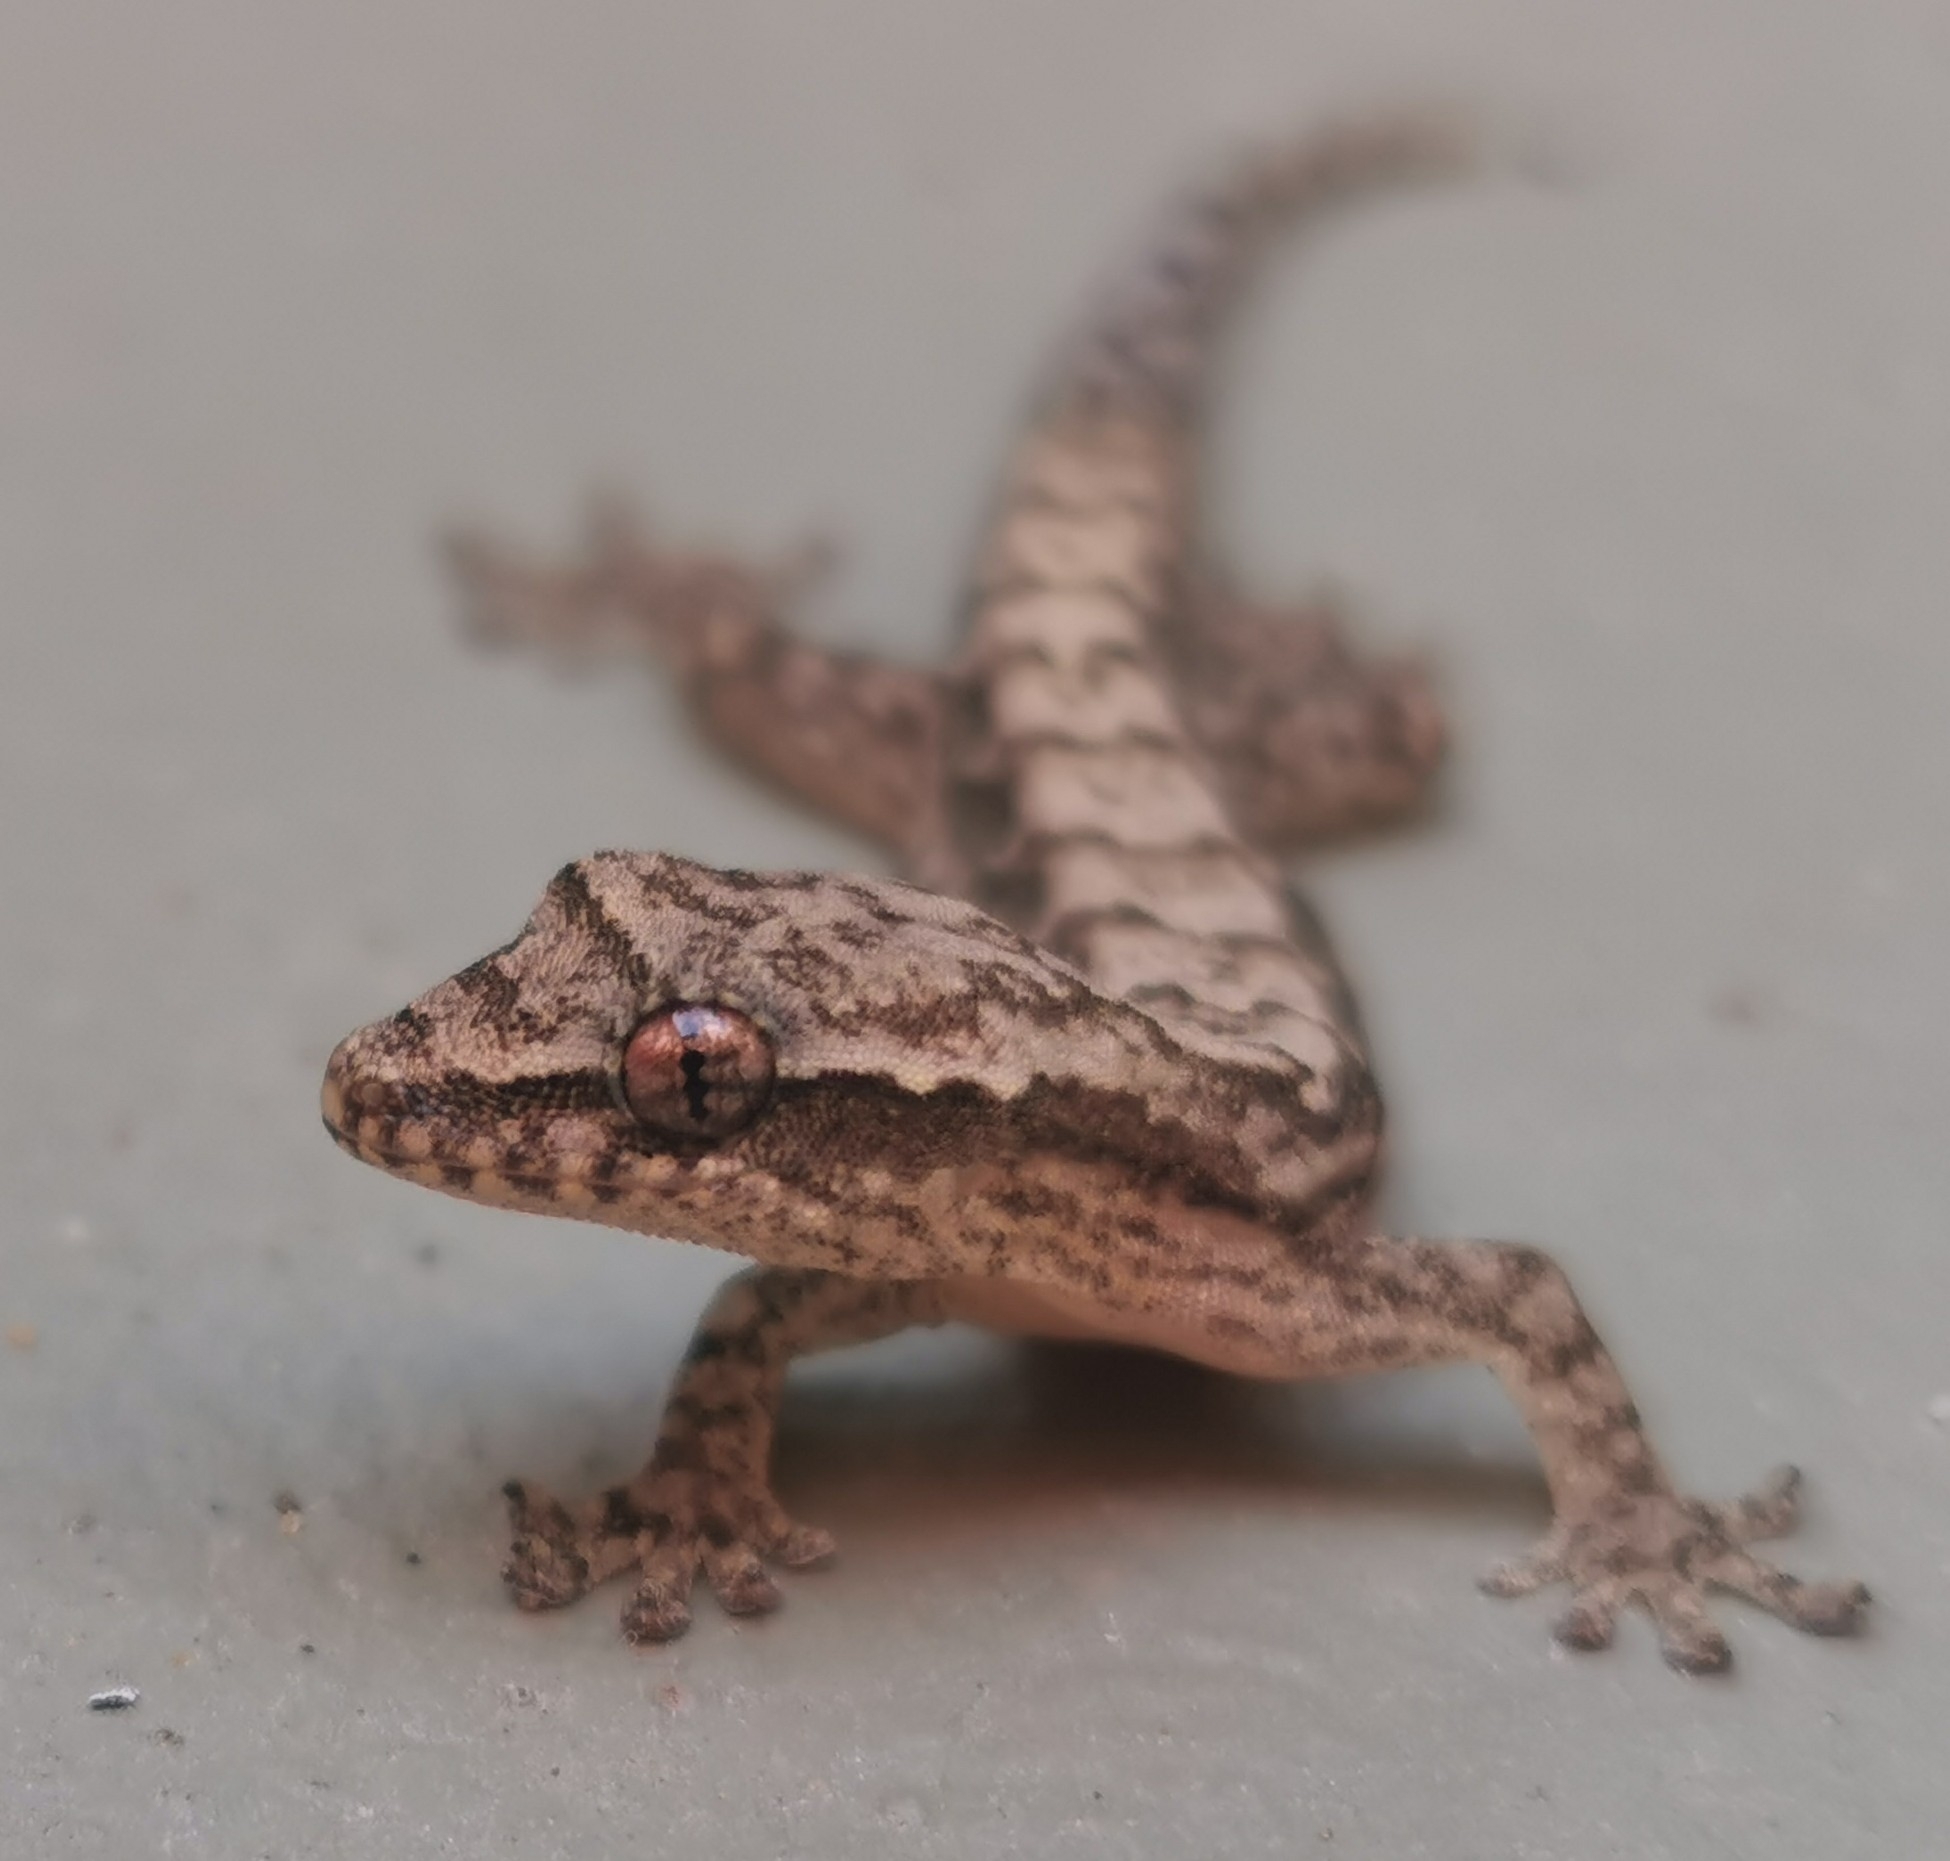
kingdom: Animalia
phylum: Chordata
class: Squamata
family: Gekkonidae
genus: Lepidodactylus
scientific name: Lepidodactylus lugubris
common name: Mourning gecko
